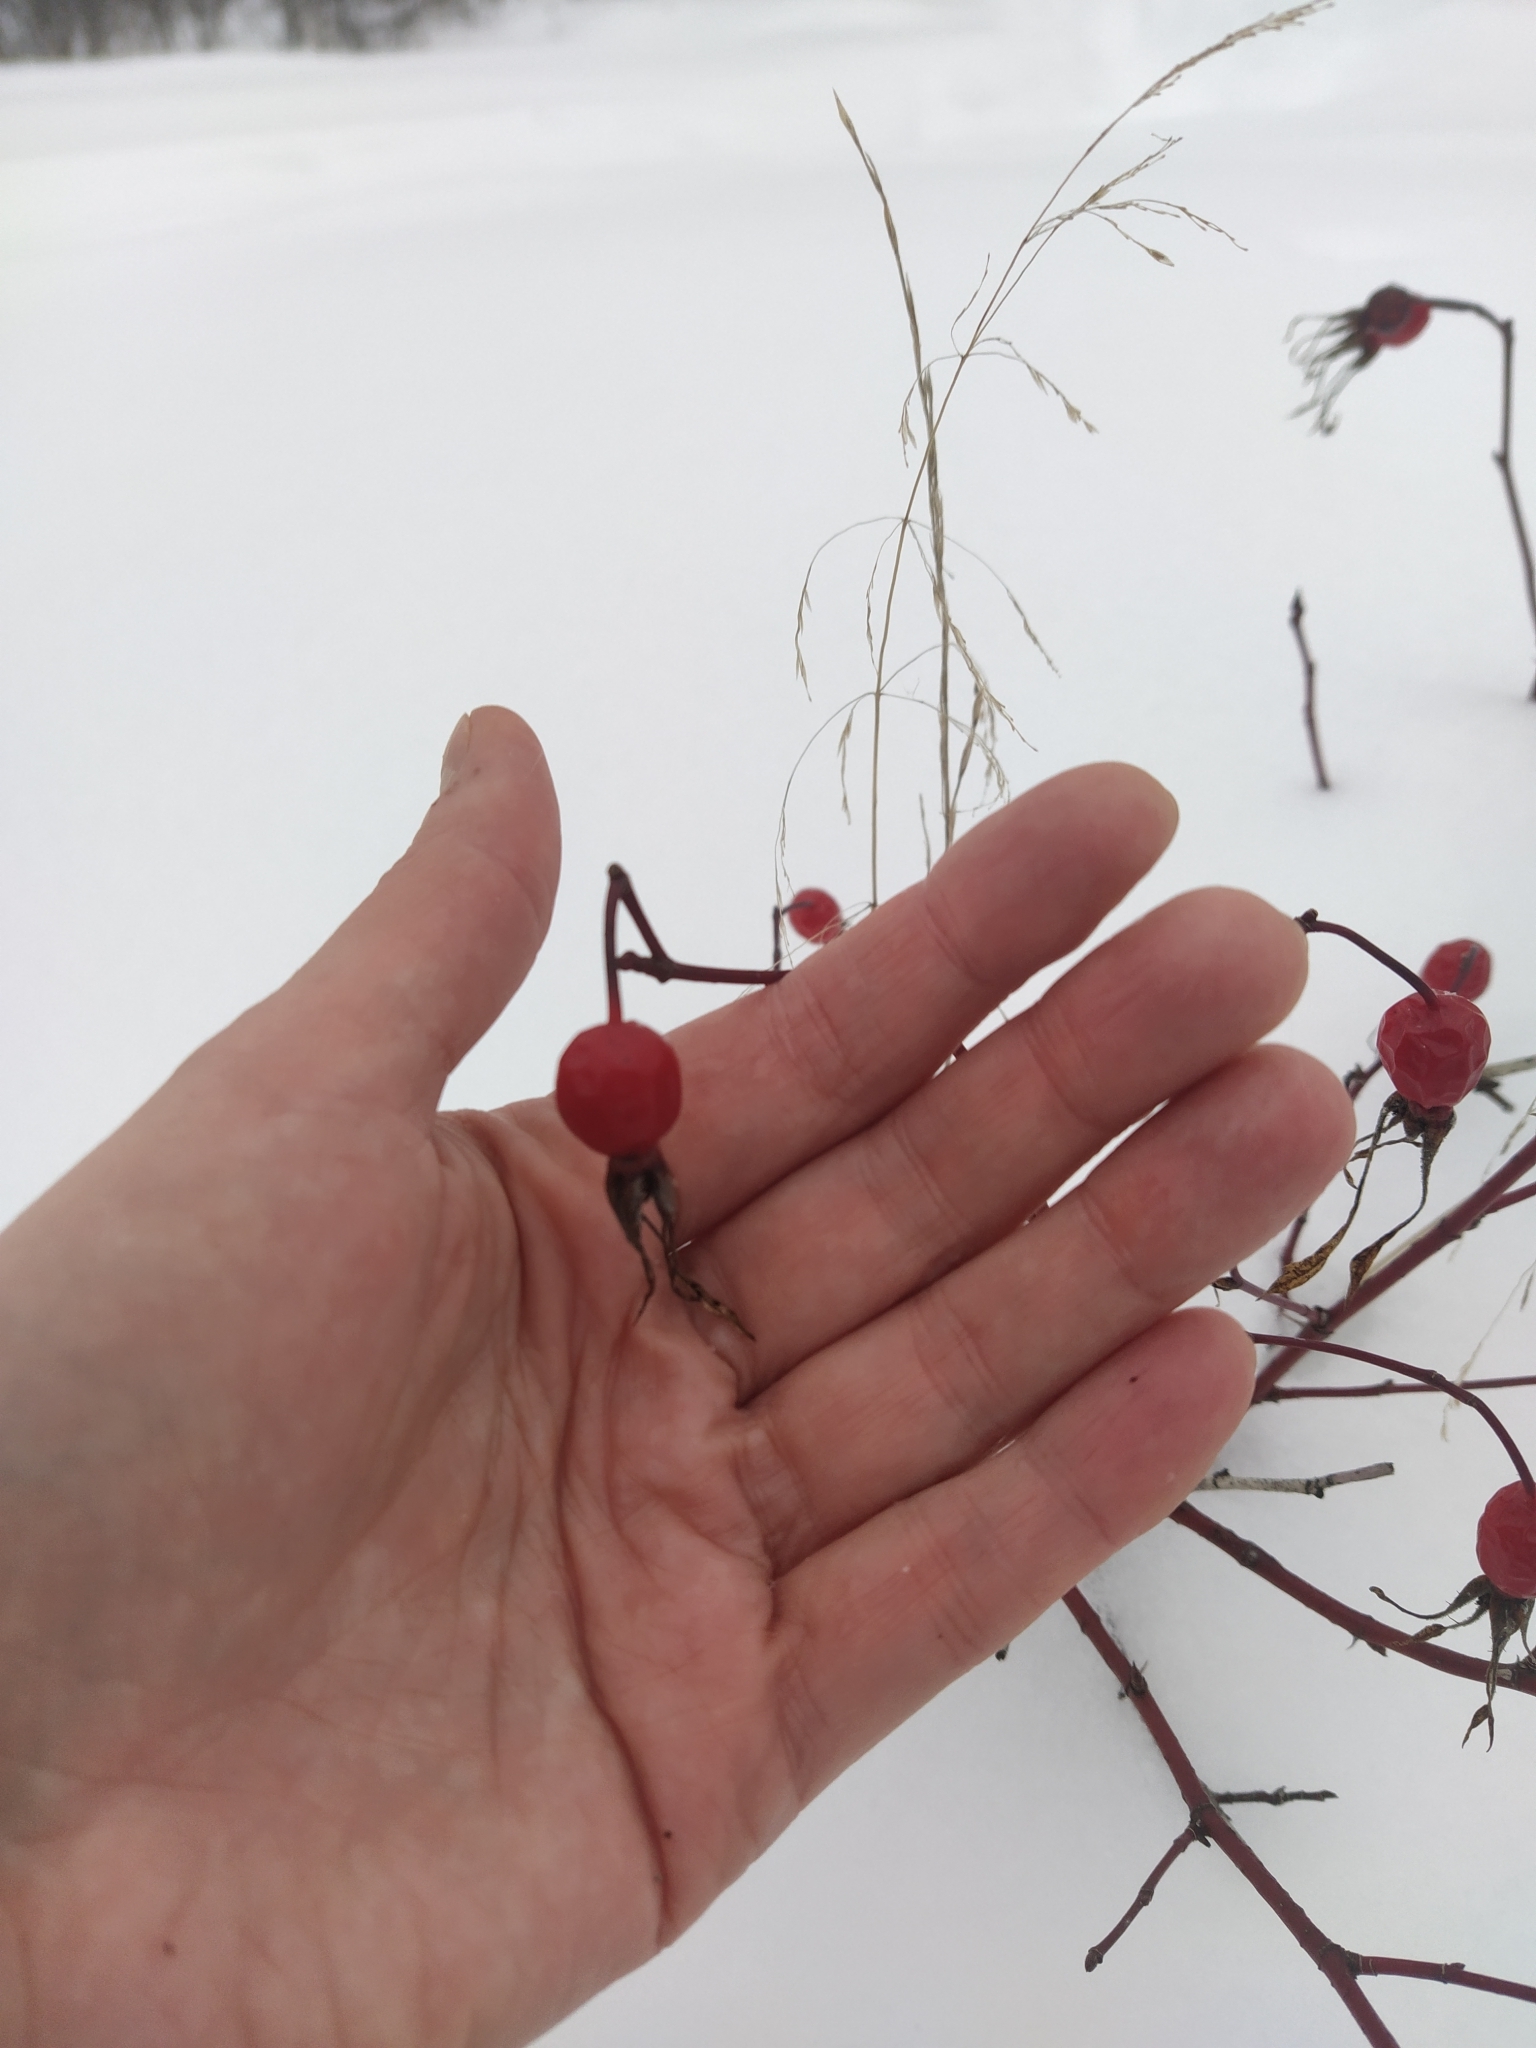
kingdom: Plantae
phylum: Tracheophyta
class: Magnoliopsida
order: Rosales
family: Rosaceae
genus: Rosa
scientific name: Rosa
